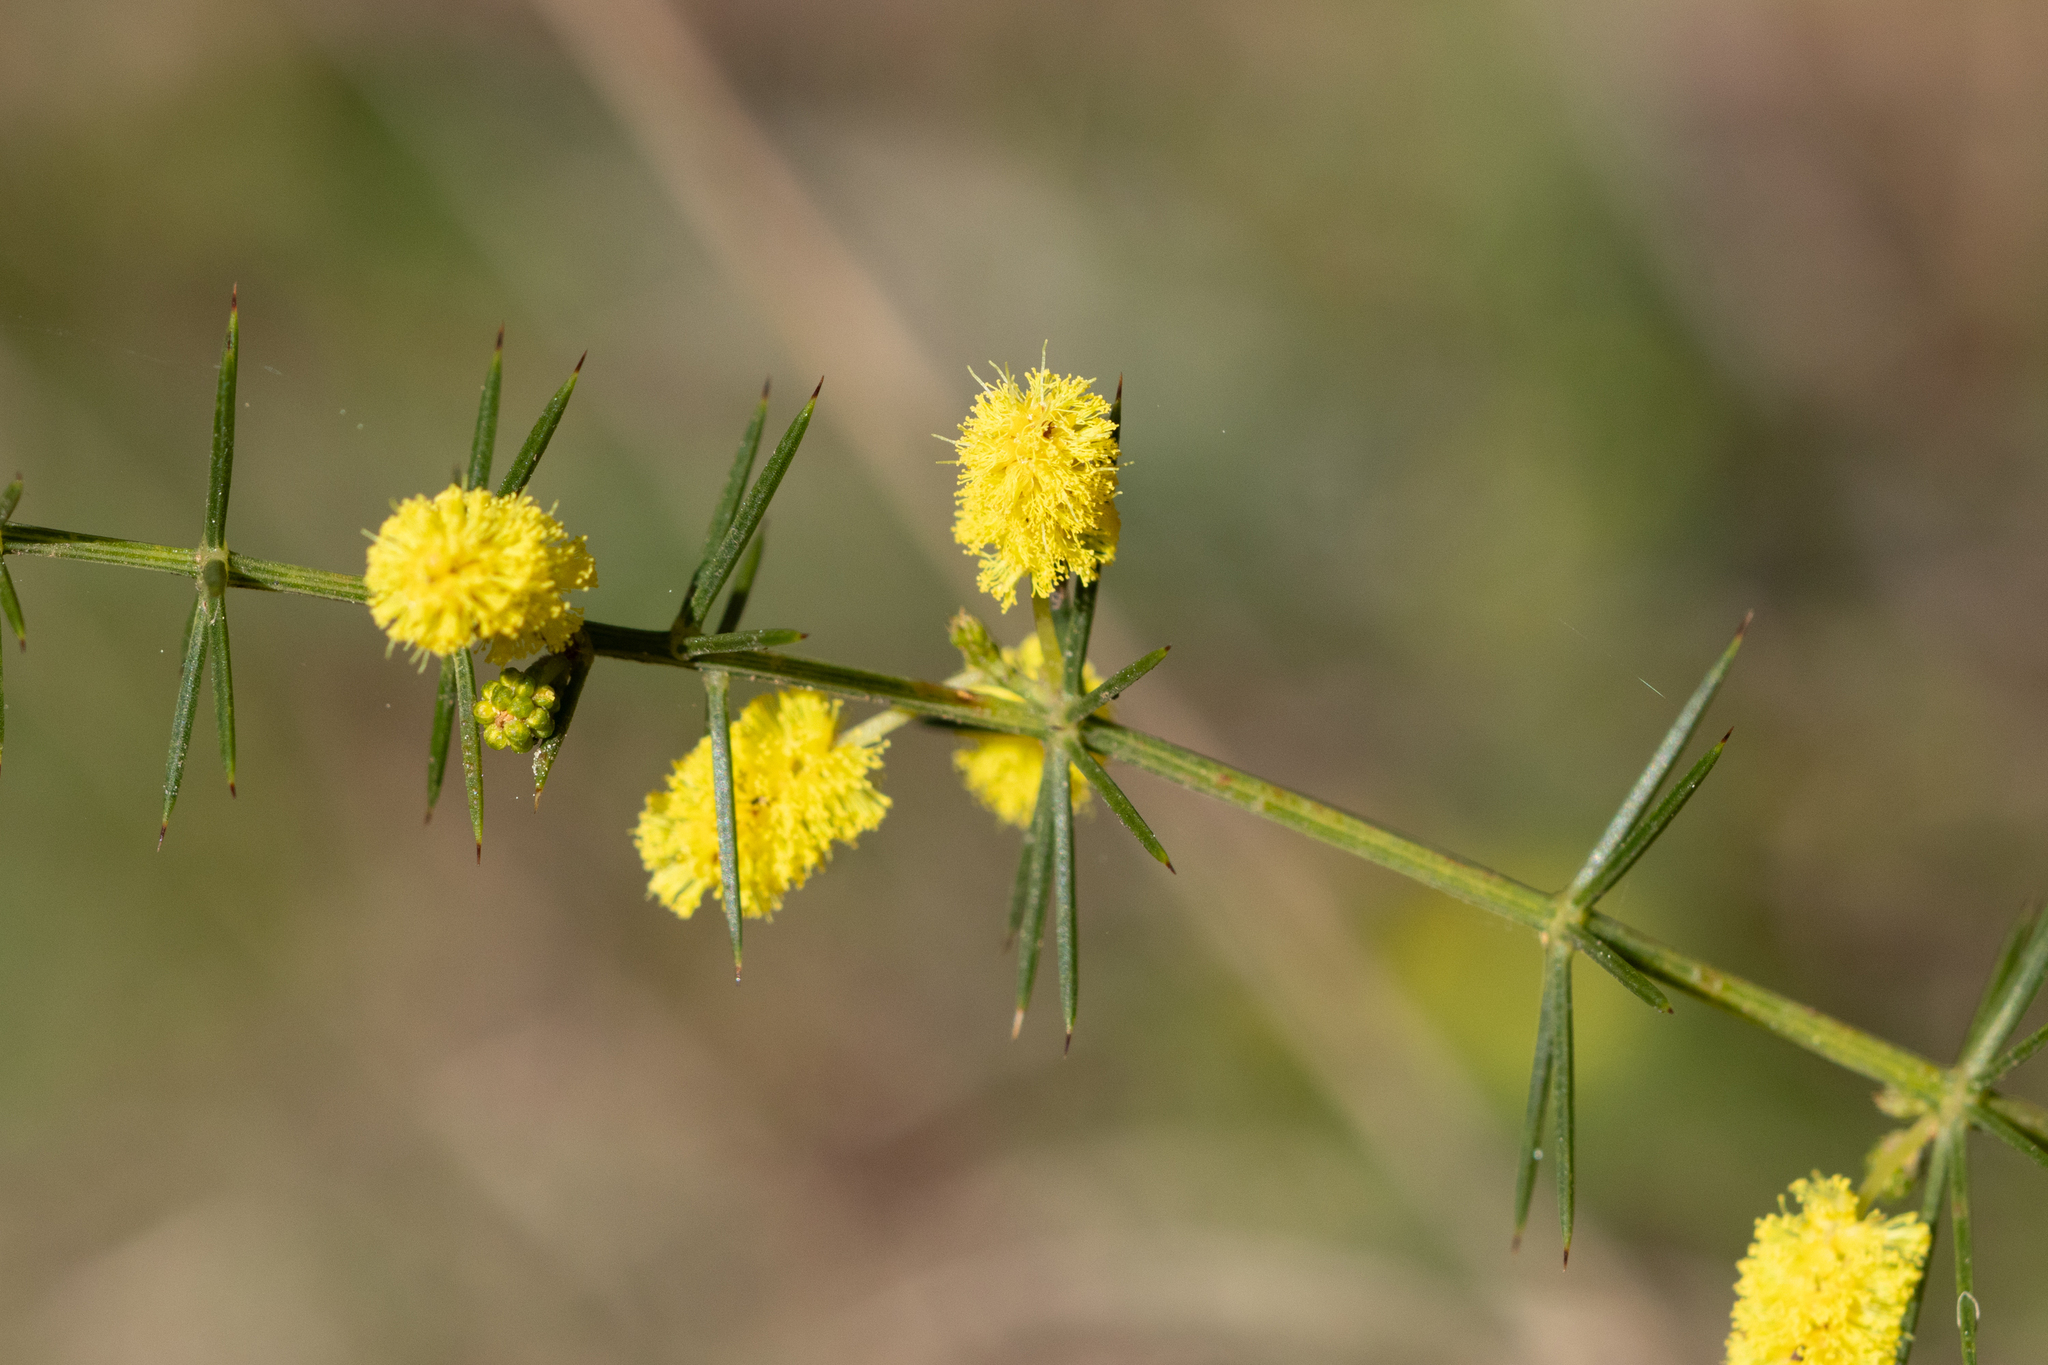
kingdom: Plantae
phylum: Tracheophyta
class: Magnoliopsida
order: Fabales
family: Fabaceae
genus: Acacia
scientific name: Acacia verticillata
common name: Prickly moses
